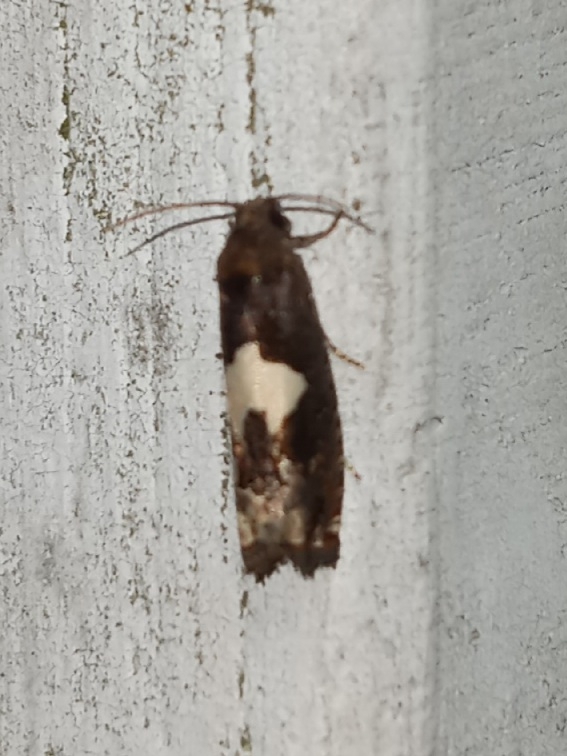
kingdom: Animalia
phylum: Arthropoda
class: Insecta
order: Lepidoptera
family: Tortricidae
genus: Epiblema
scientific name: Epiblema otiosana
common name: Bidens borer moth
